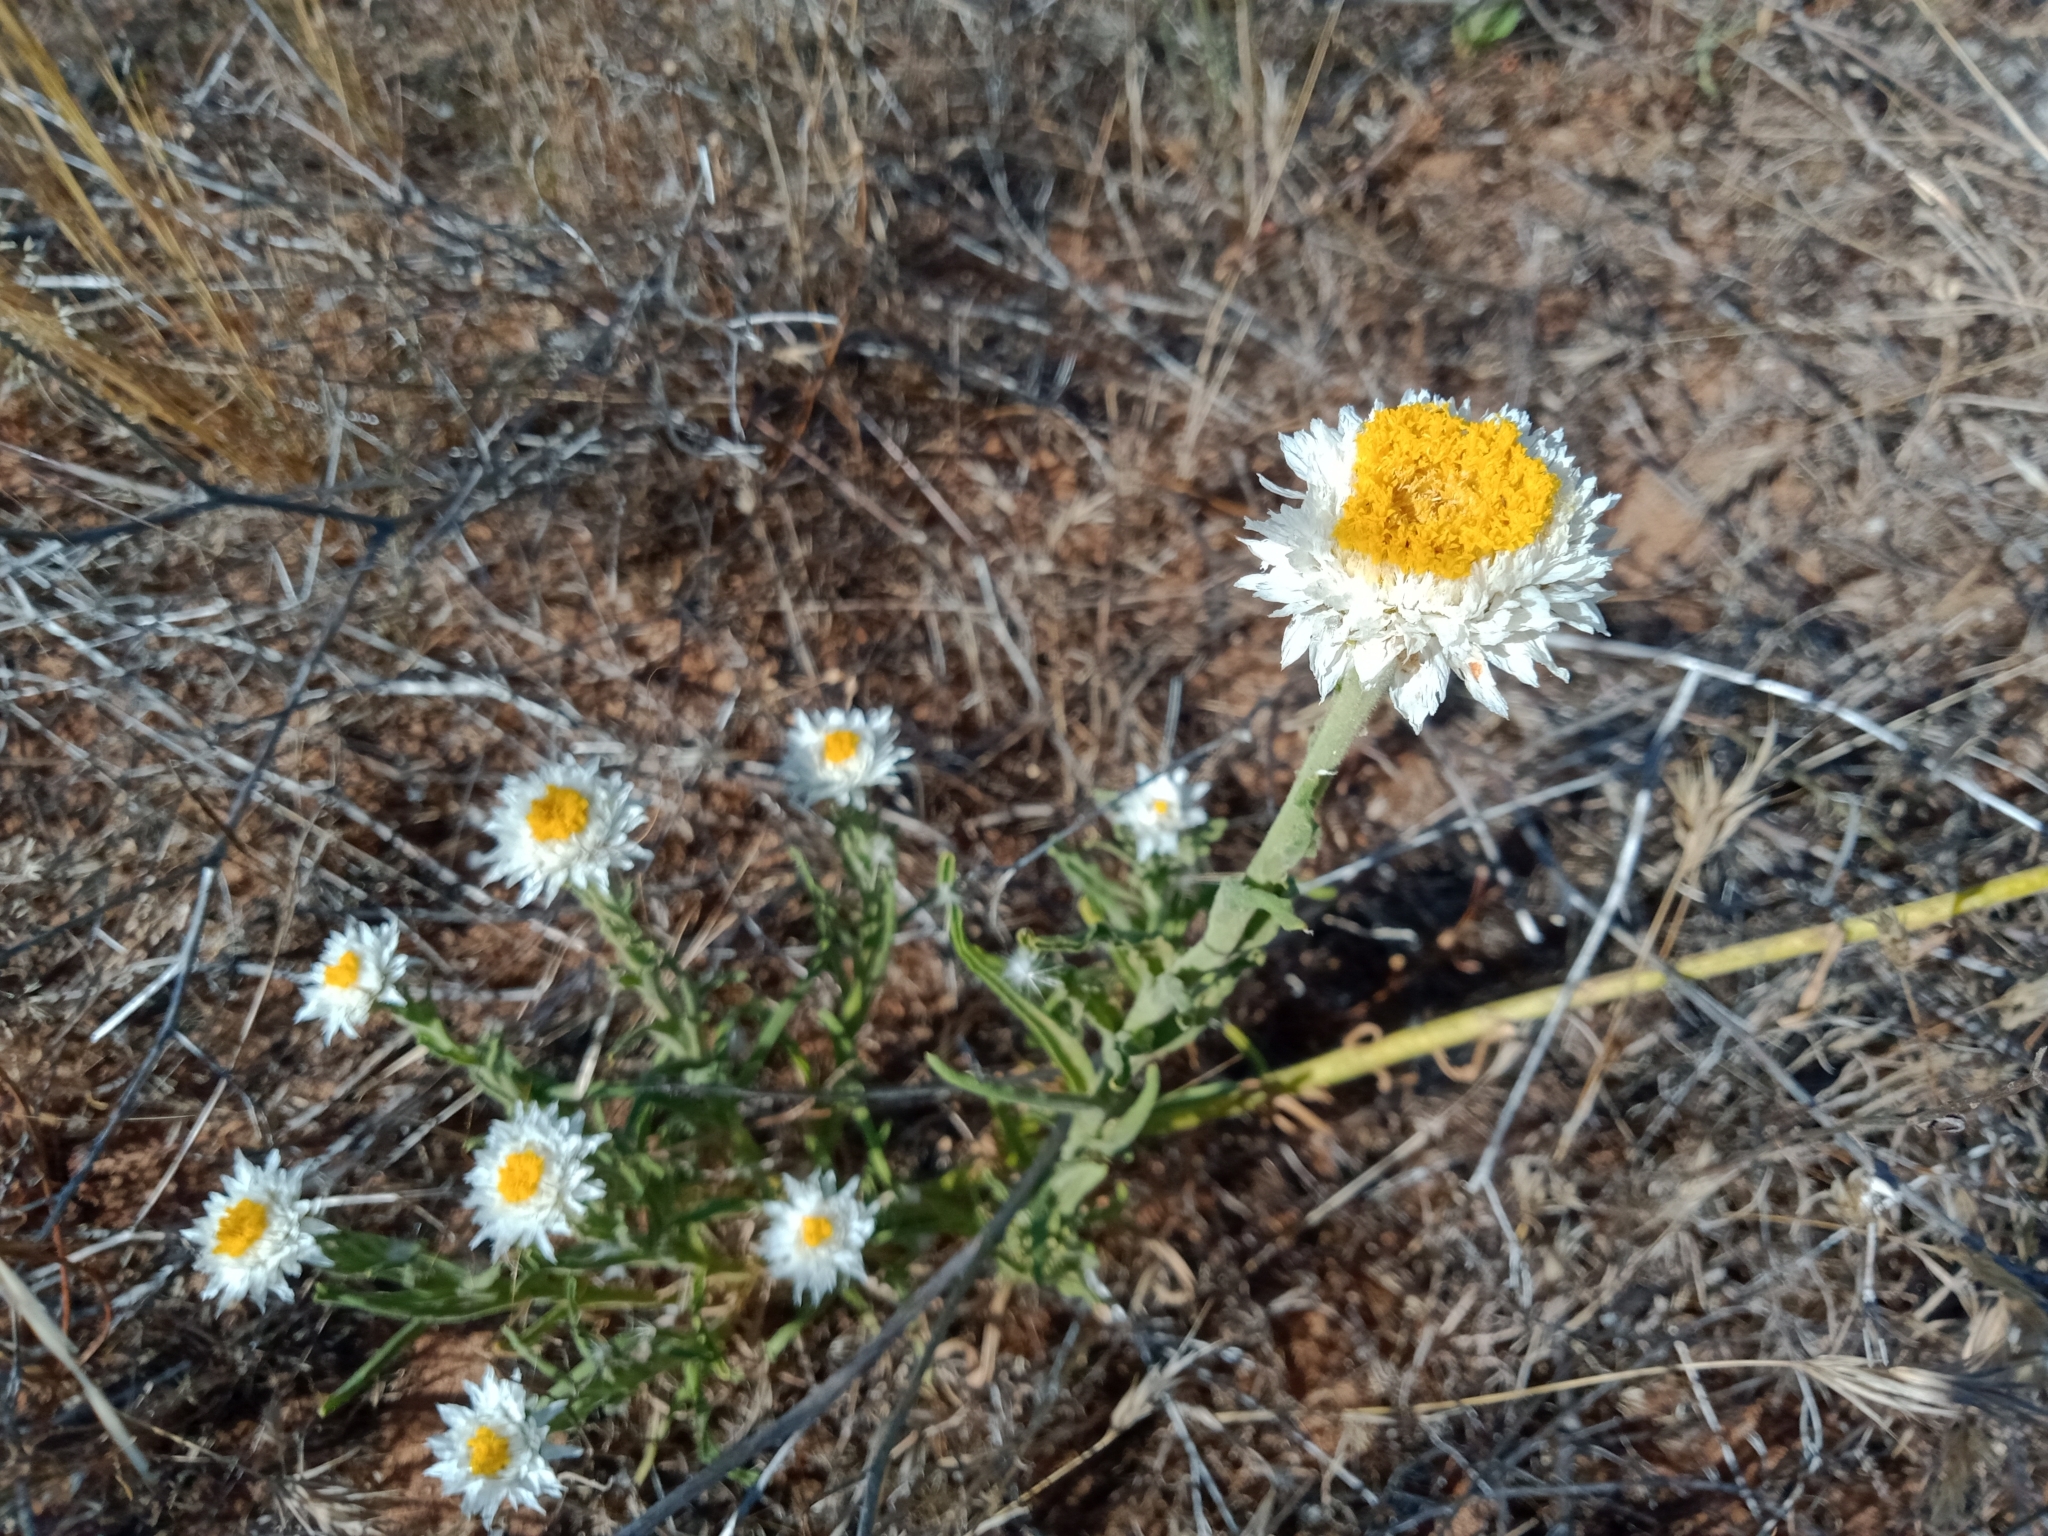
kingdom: Plantae
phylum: Tracheophyta
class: Magnoliopsida
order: Asterales
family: Asteraceae
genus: Polycalymma
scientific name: Polycalymma stuartii
